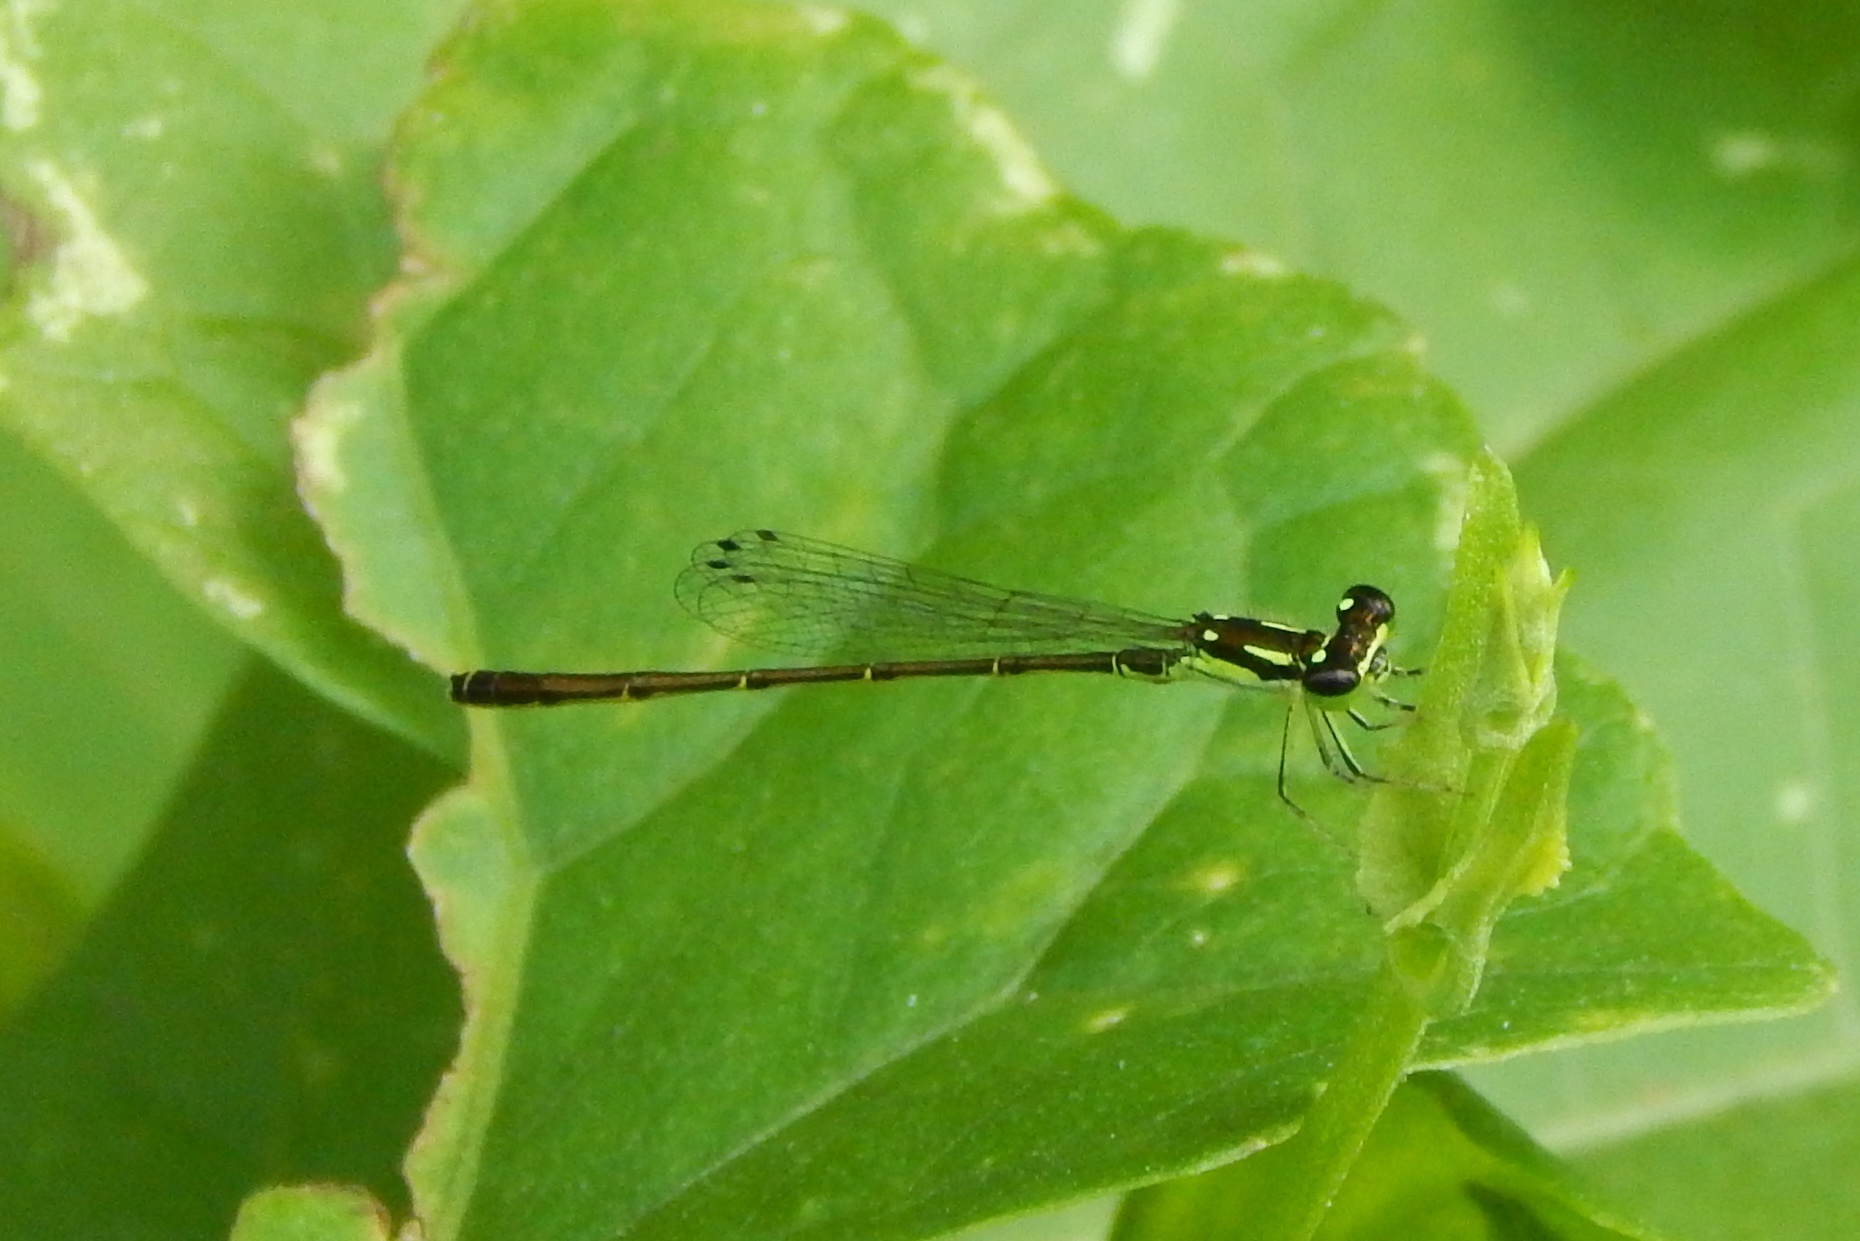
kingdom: Animalia
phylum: Arthropoda
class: Insecta
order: Odonata
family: Coenagrionidae
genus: Ischnura
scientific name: Ischnura posita
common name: Fragile forktail
